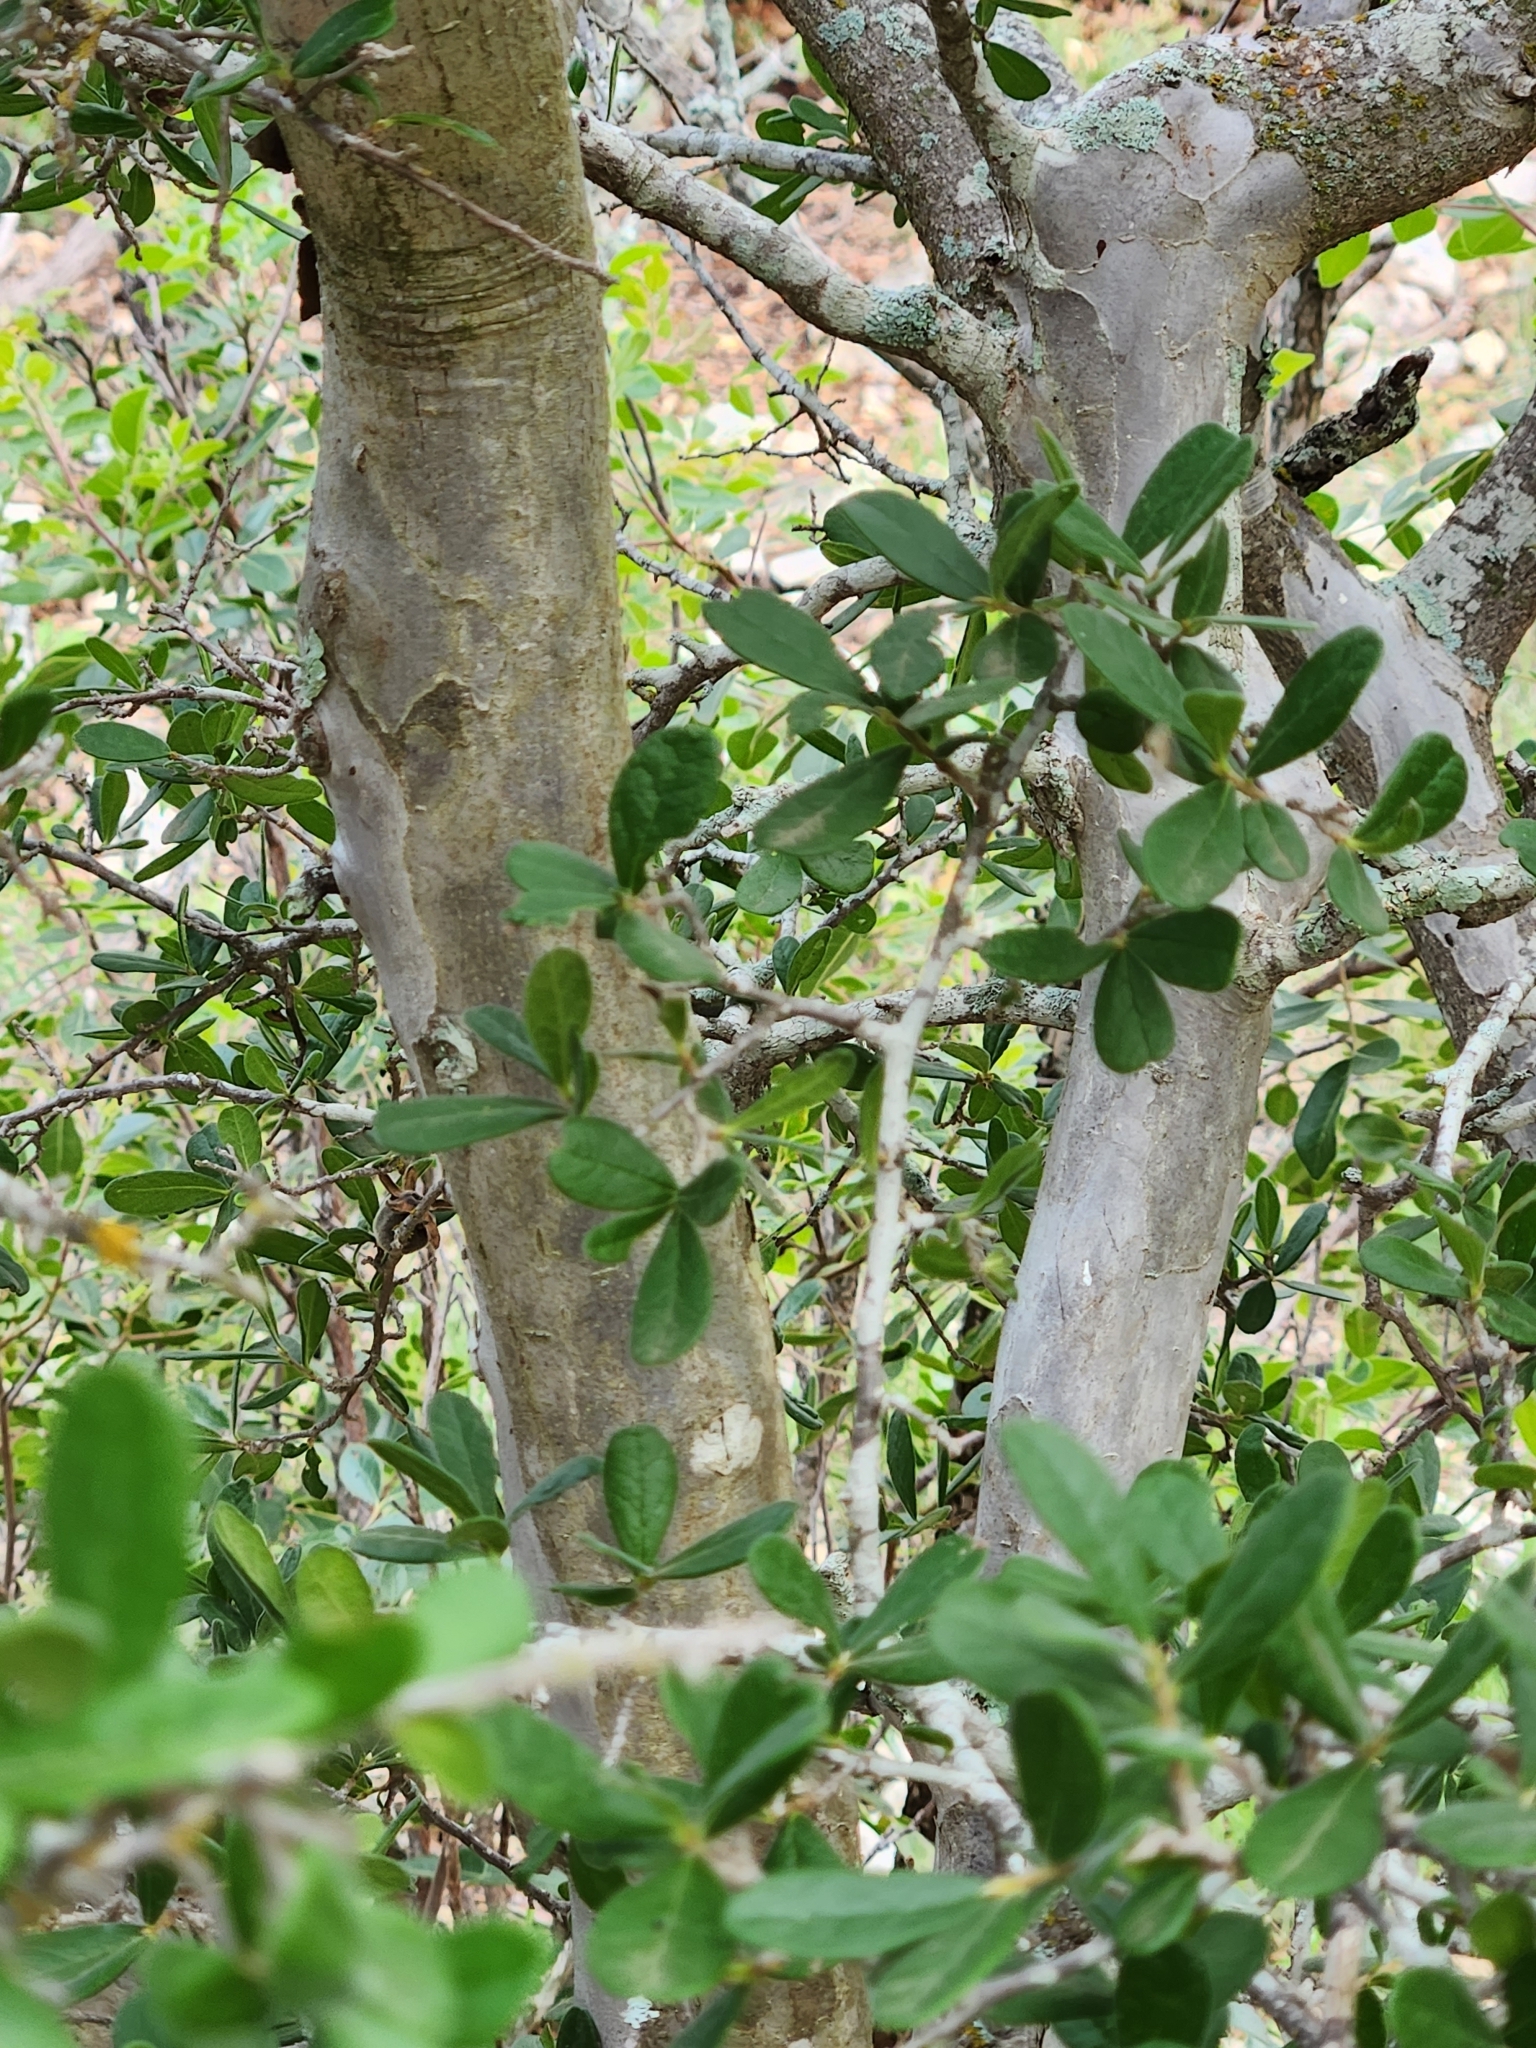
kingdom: Plantae
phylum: Tracheophyta
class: Magnoliopsida
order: Ericales
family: Ebenaceae
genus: Diospyros
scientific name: Diospyros texana
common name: Texas persimmon
